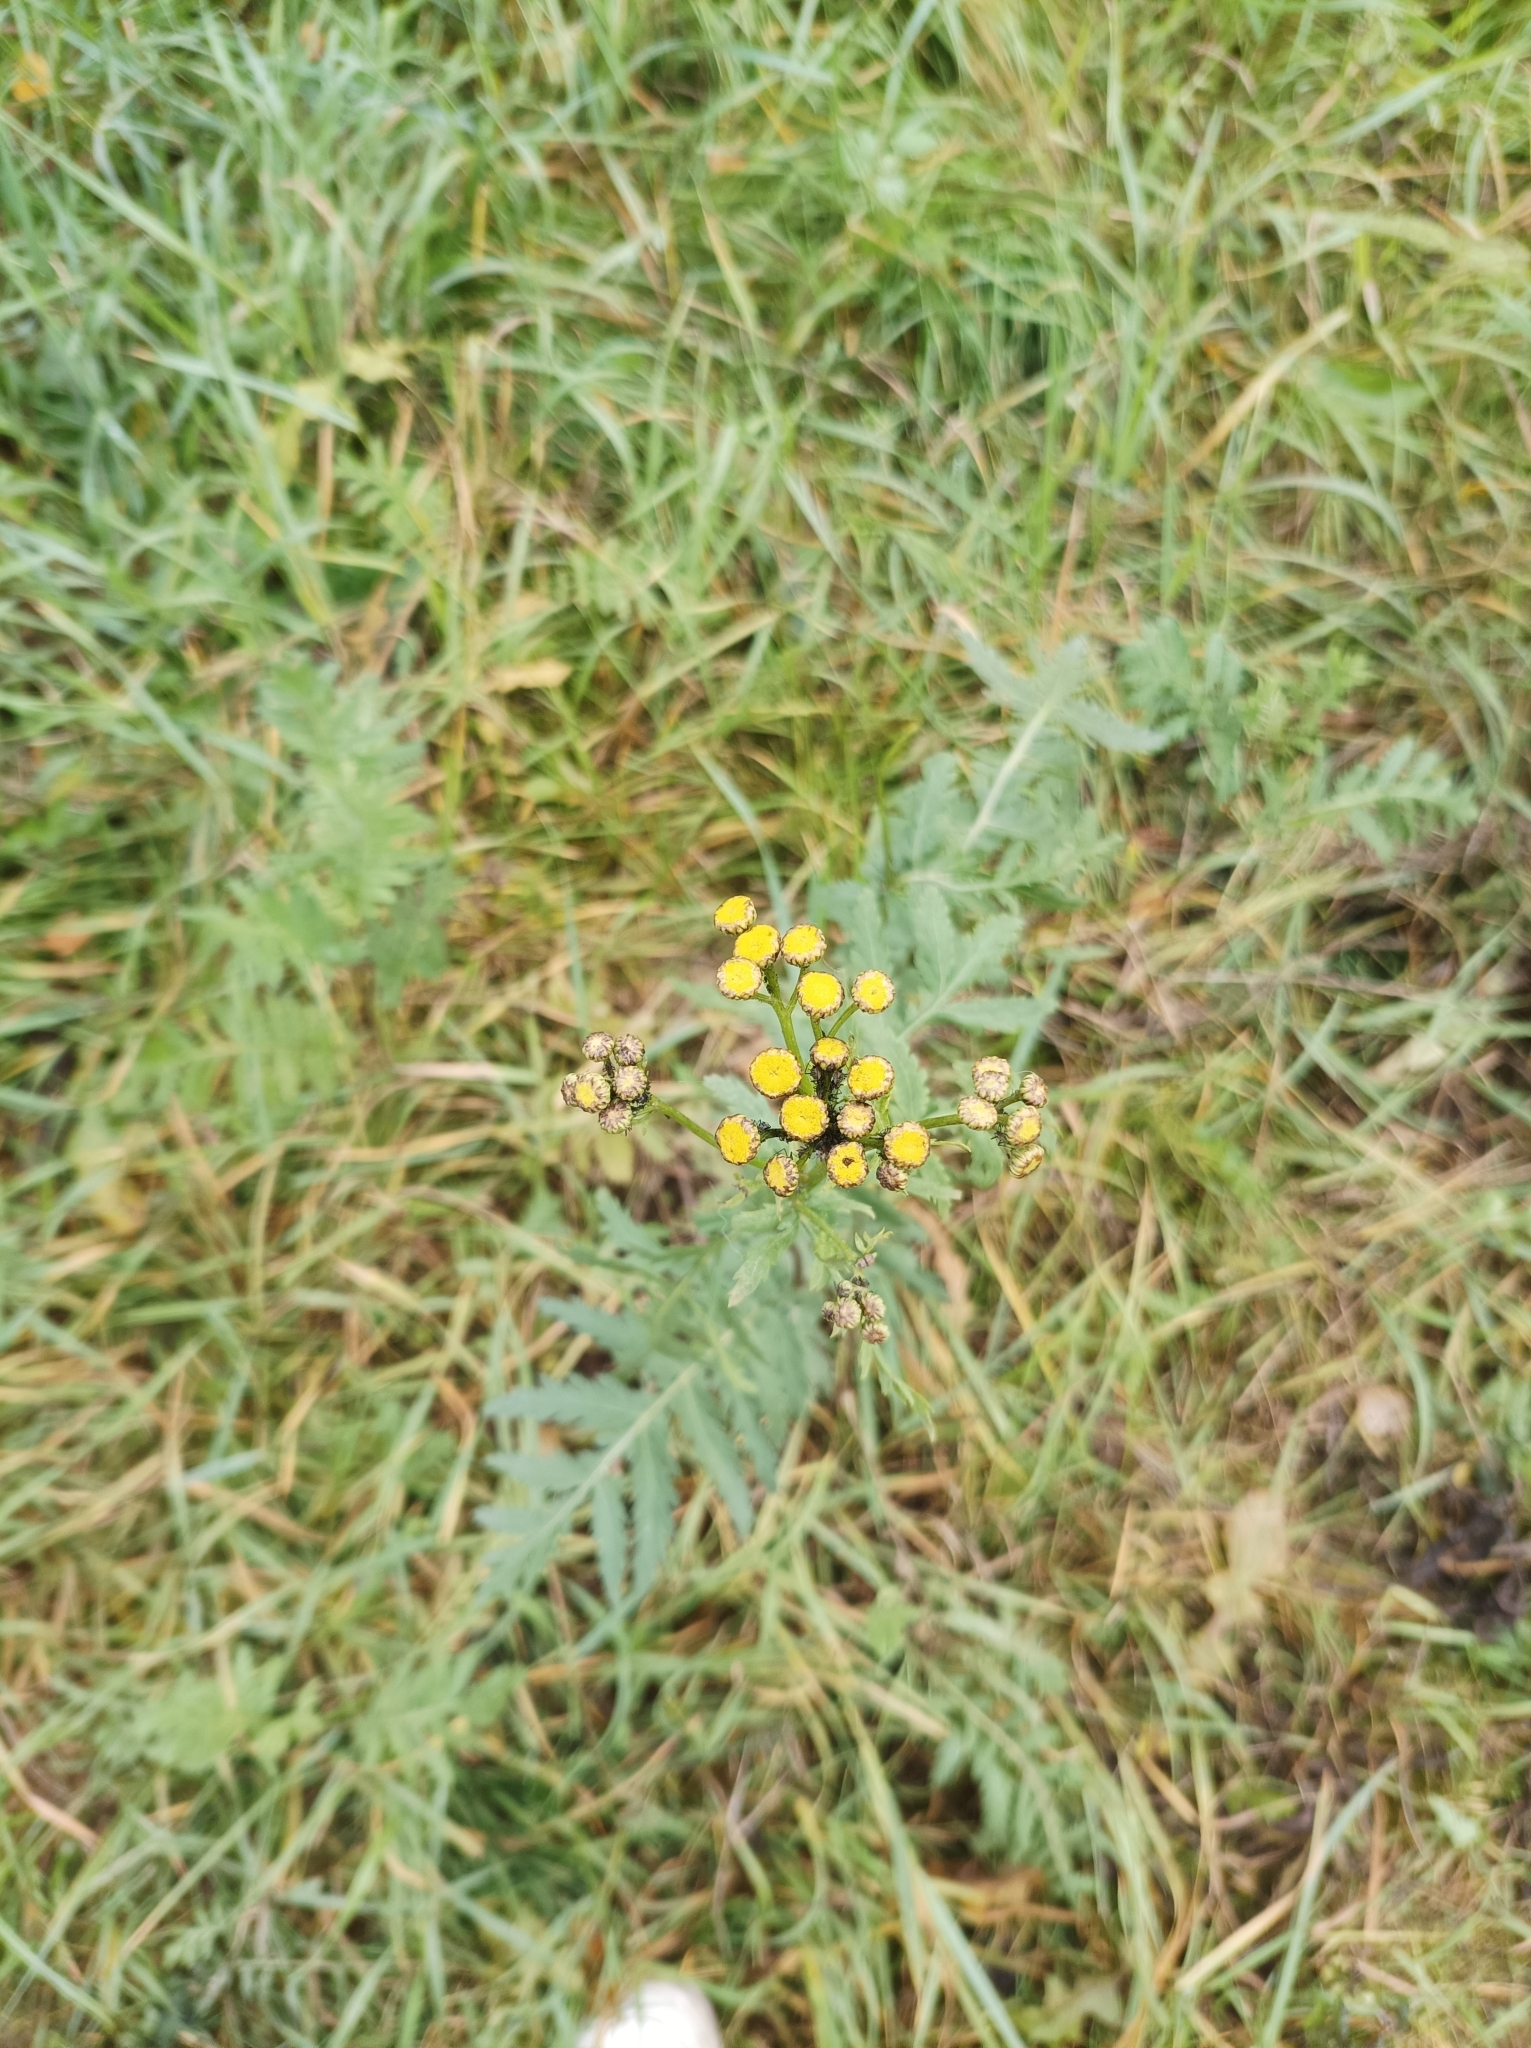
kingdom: Plantae
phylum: Tracheophyta
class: Magnoliopsida
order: Asterales
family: Asteraceae
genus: Tanacetum
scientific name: Tanacetum vulgare
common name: Common tansy
